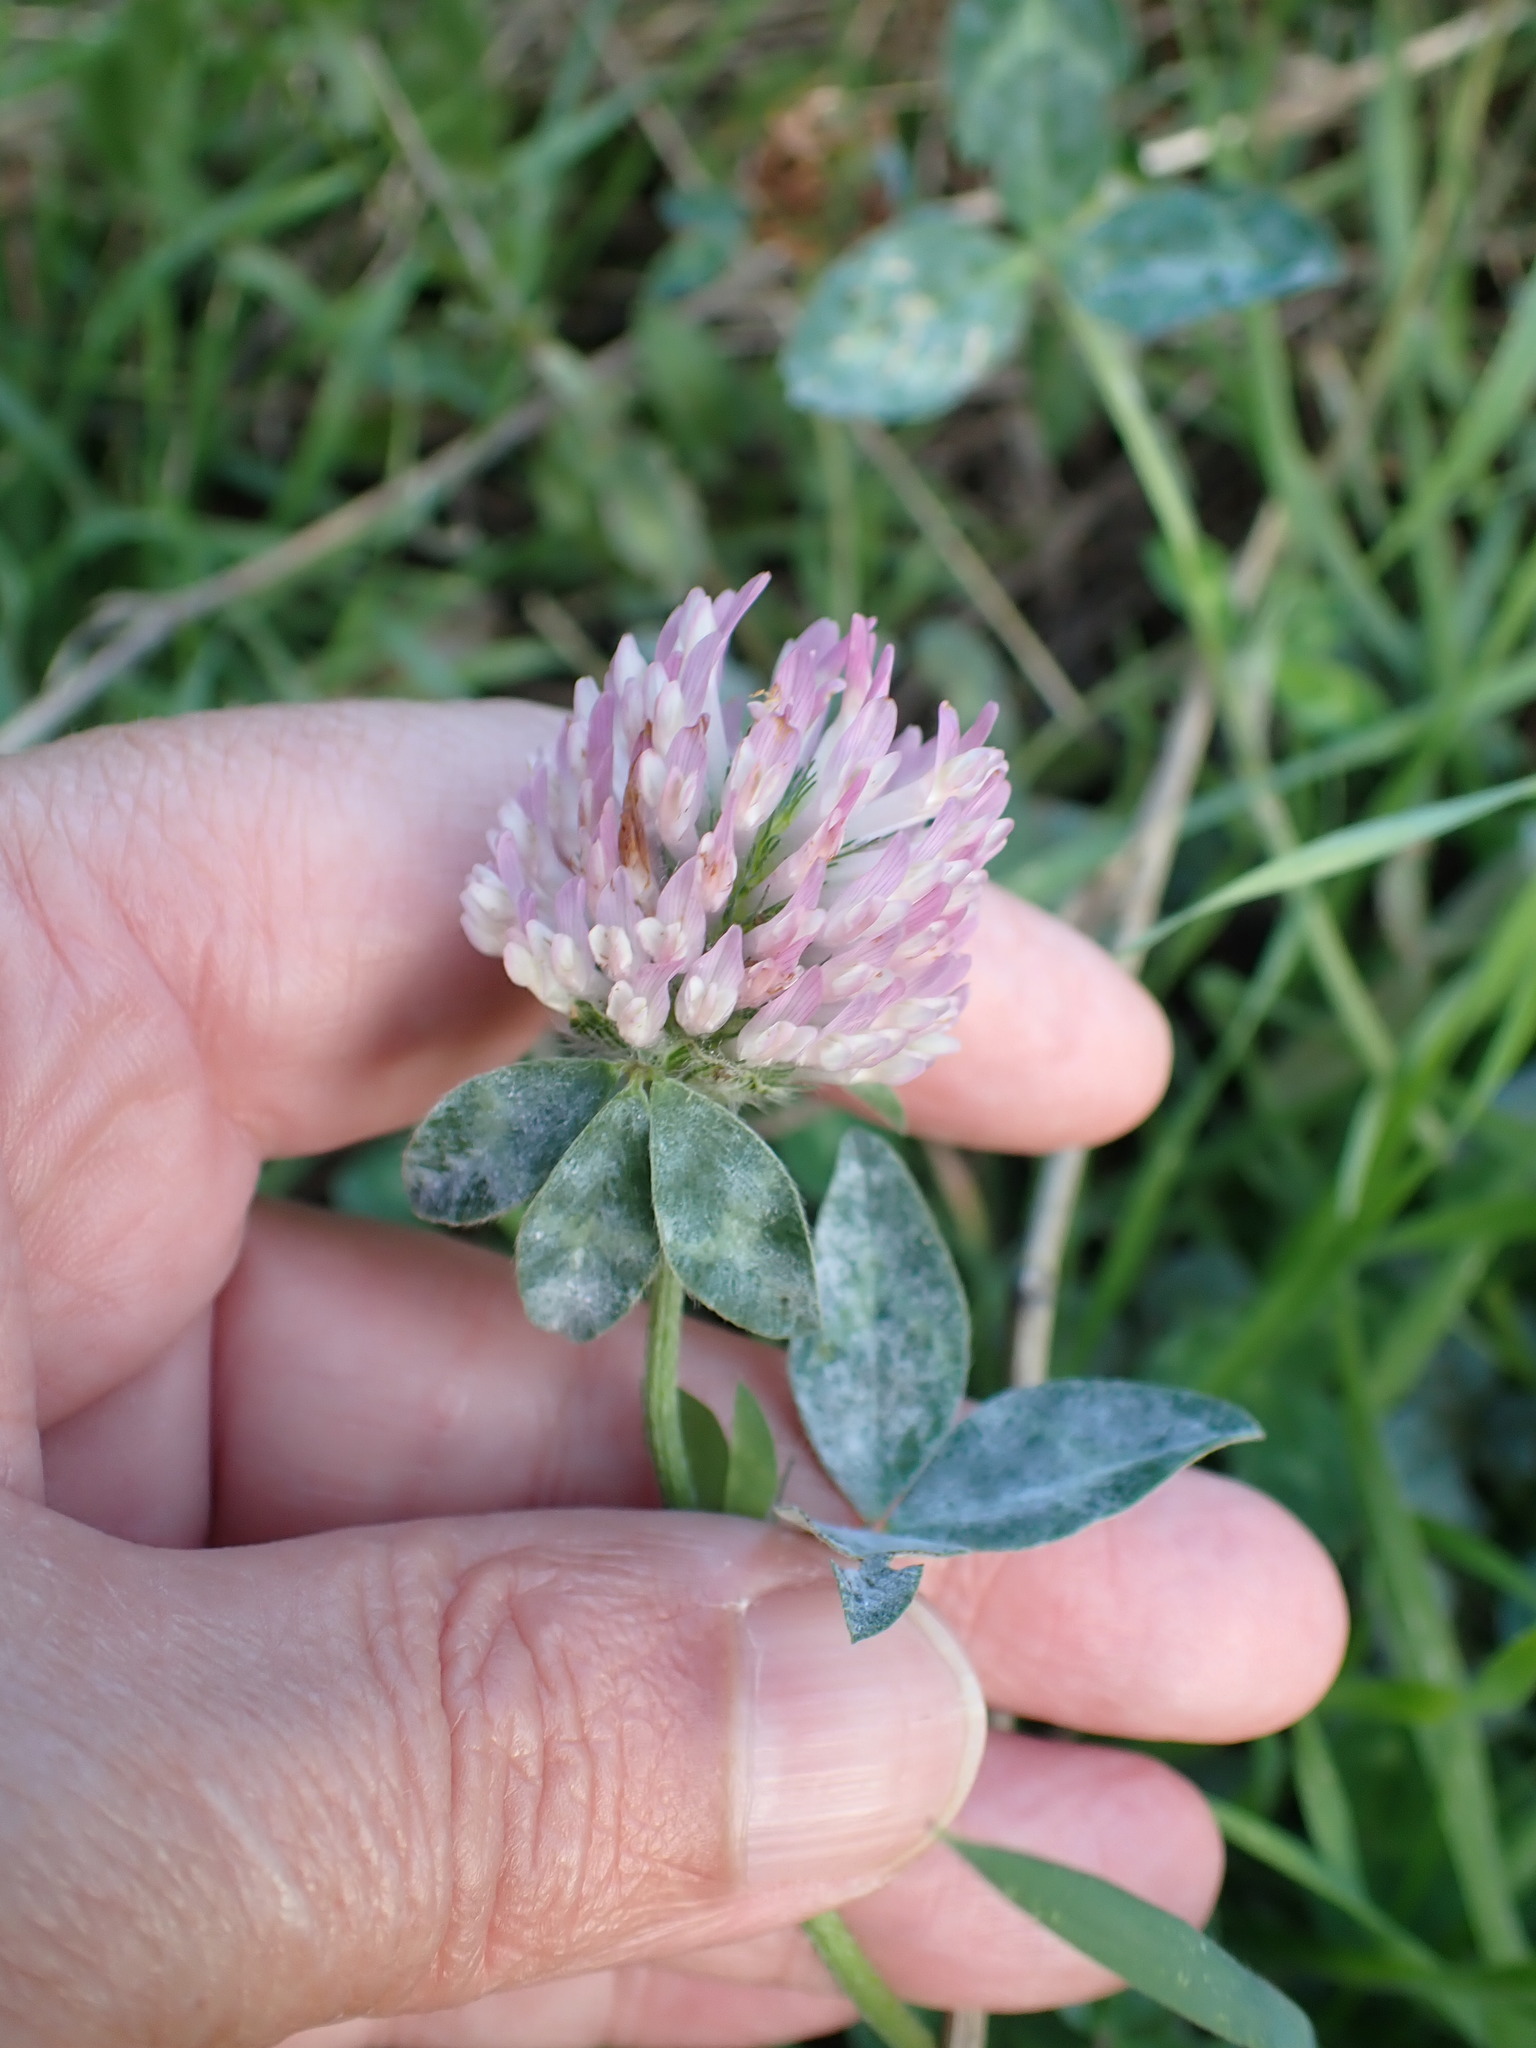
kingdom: Plantae
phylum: Tracheophyta
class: Magnoliopsida
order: Fabales
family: Fabaceae
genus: Trifolium
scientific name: Trifolium pratense
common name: Red clover
